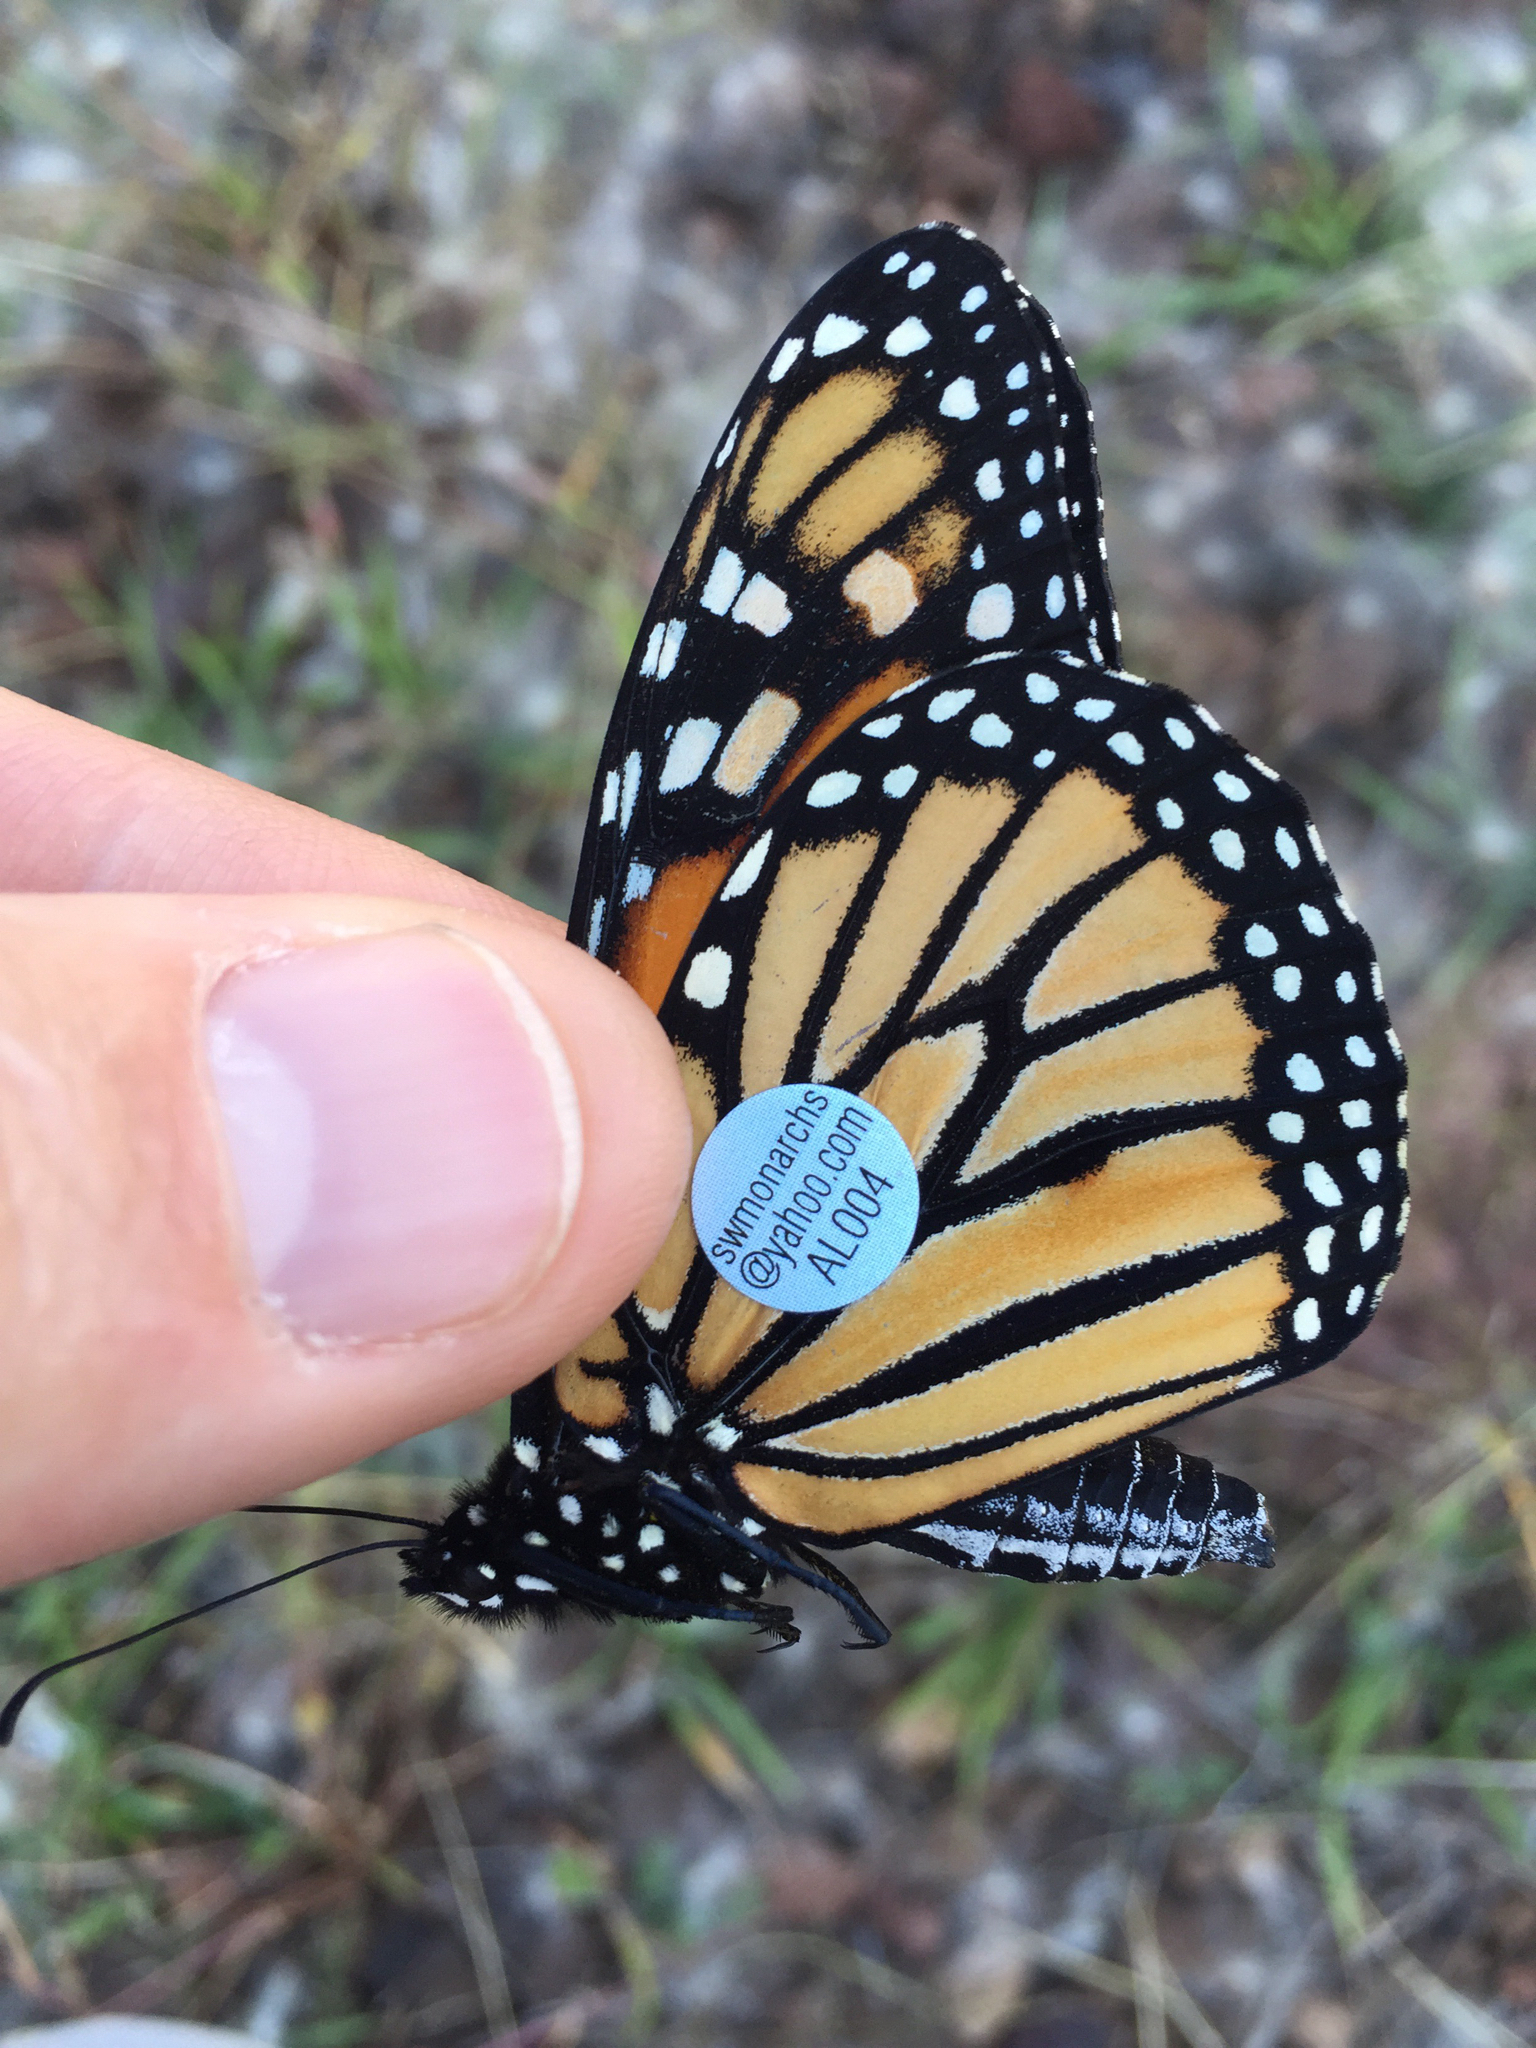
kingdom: Animalia
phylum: Arthropoda
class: Insecta
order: Lepidoptera
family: Nymphalidae
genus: Danaus
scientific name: Danaus plexippus
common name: Monarch
